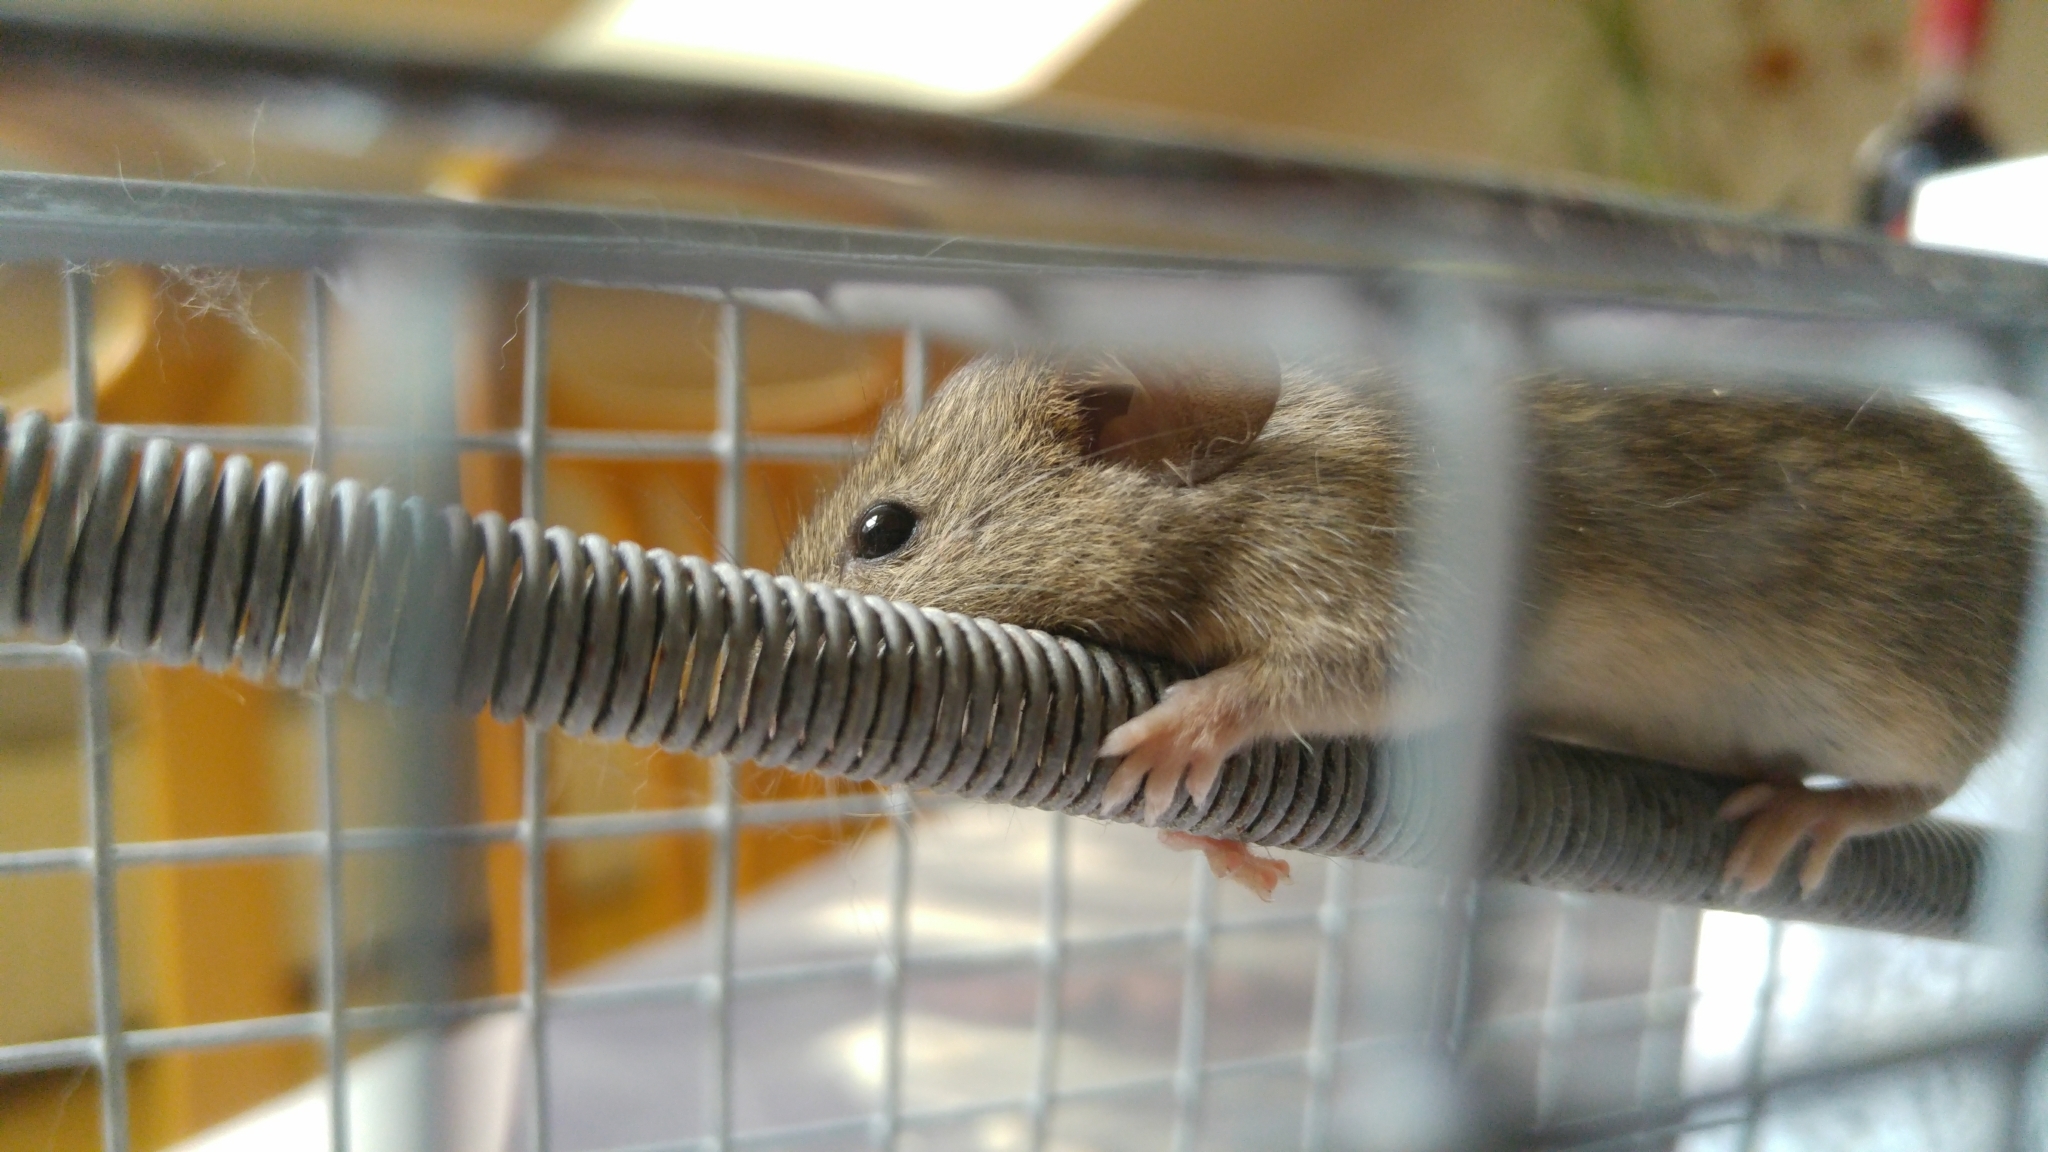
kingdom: Animalia
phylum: Chordata
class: Mammalia
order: Rodentia
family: Muridae
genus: Mus
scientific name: Mus musculus
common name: House mouse
